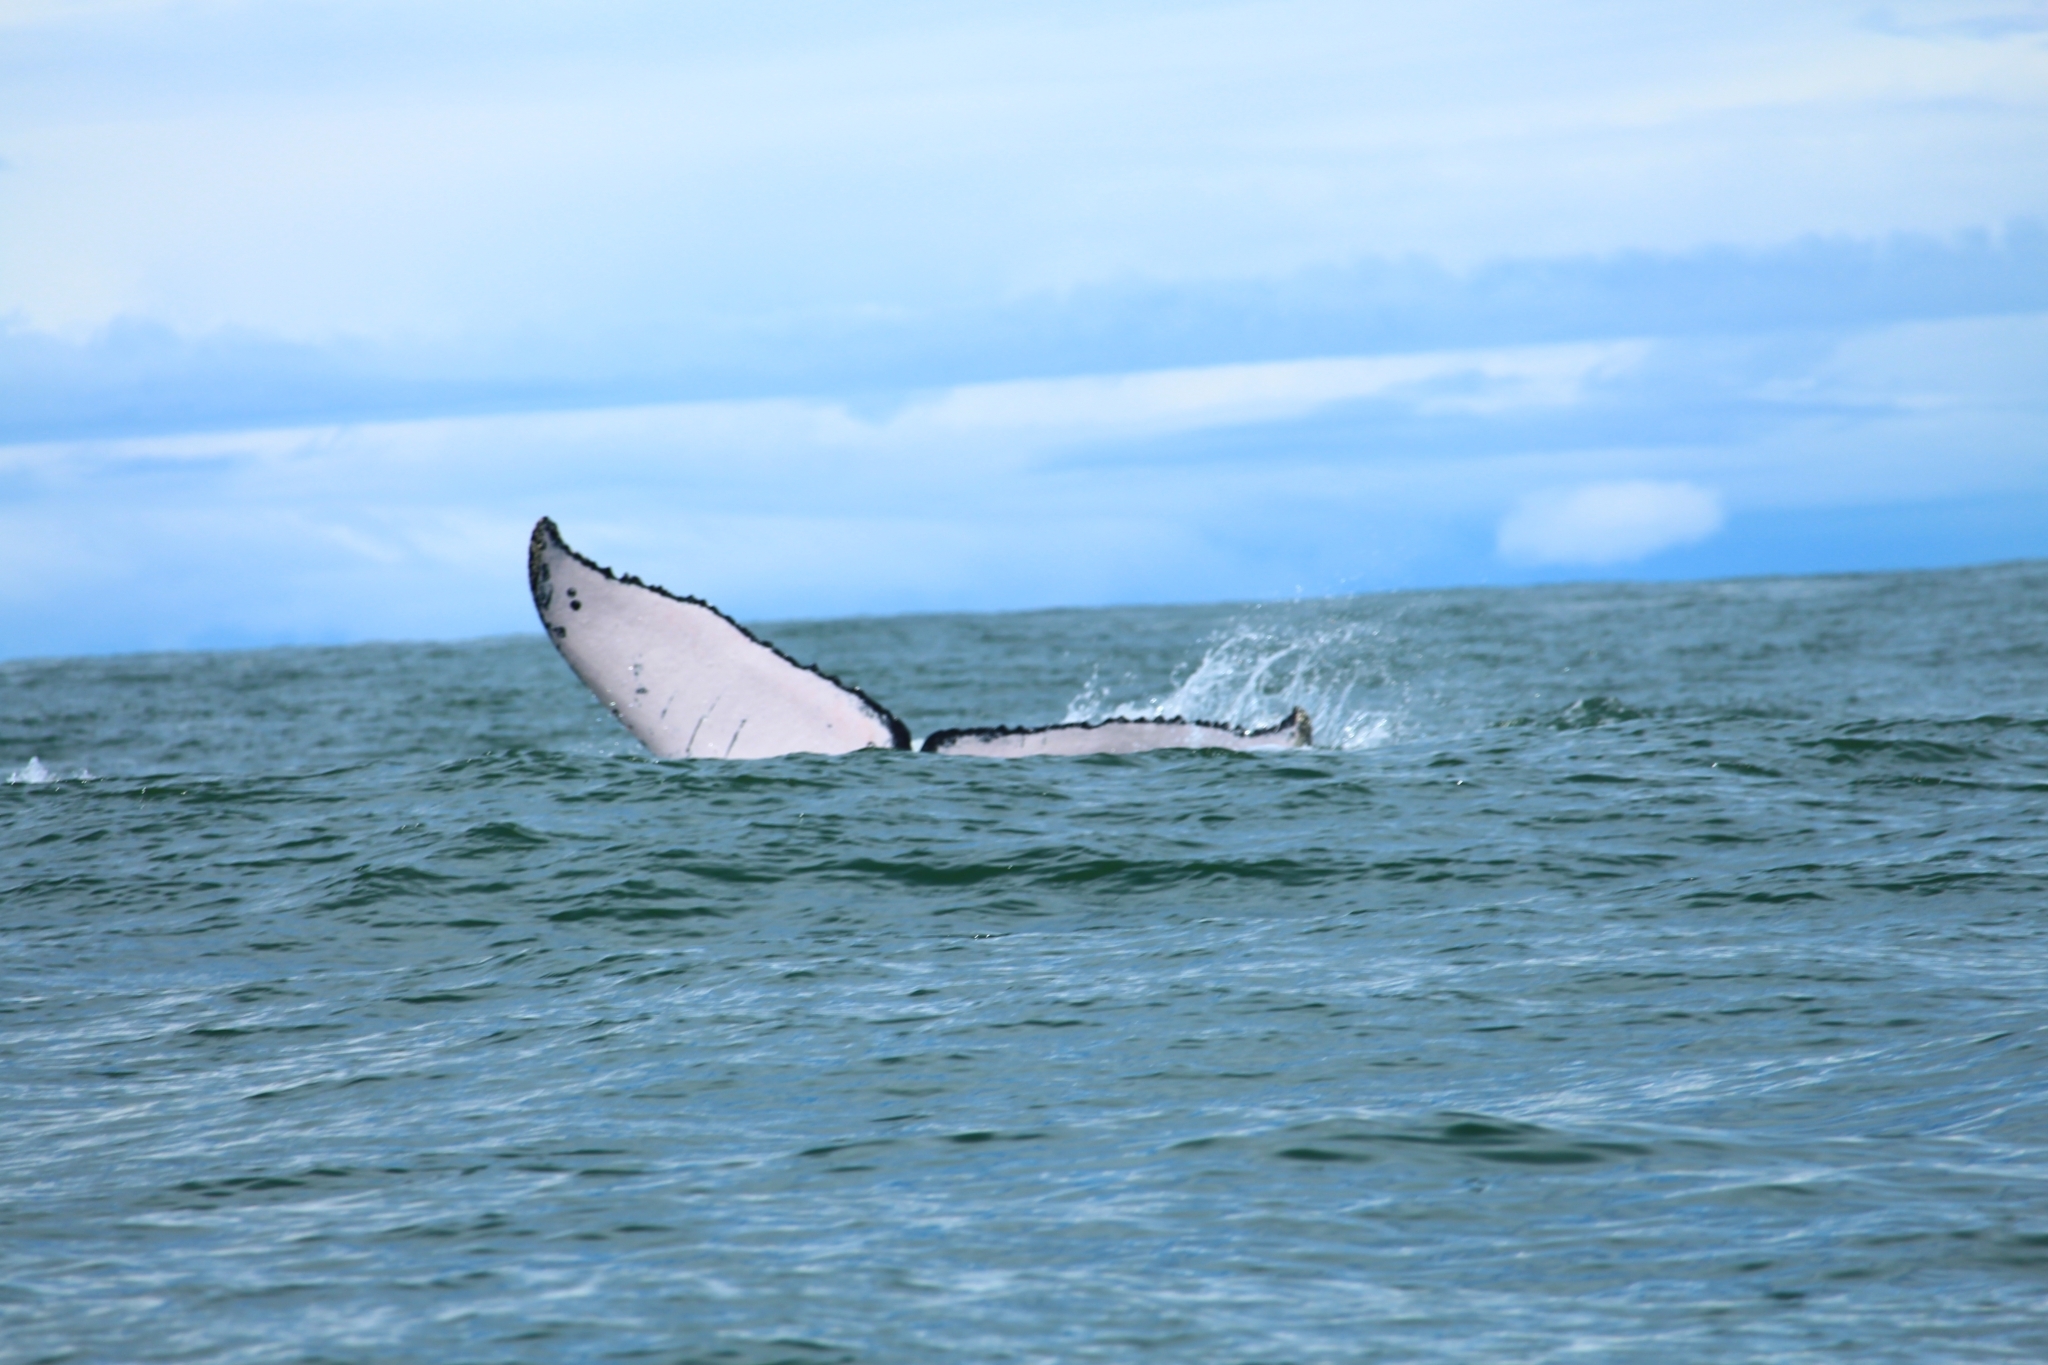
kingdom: Animalia
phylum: Chordata
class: Mammalia
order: Cetacea
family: Balaenopteridae
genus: Megaptera
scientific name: Megaptera novaeangliae
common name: Humpback whale
